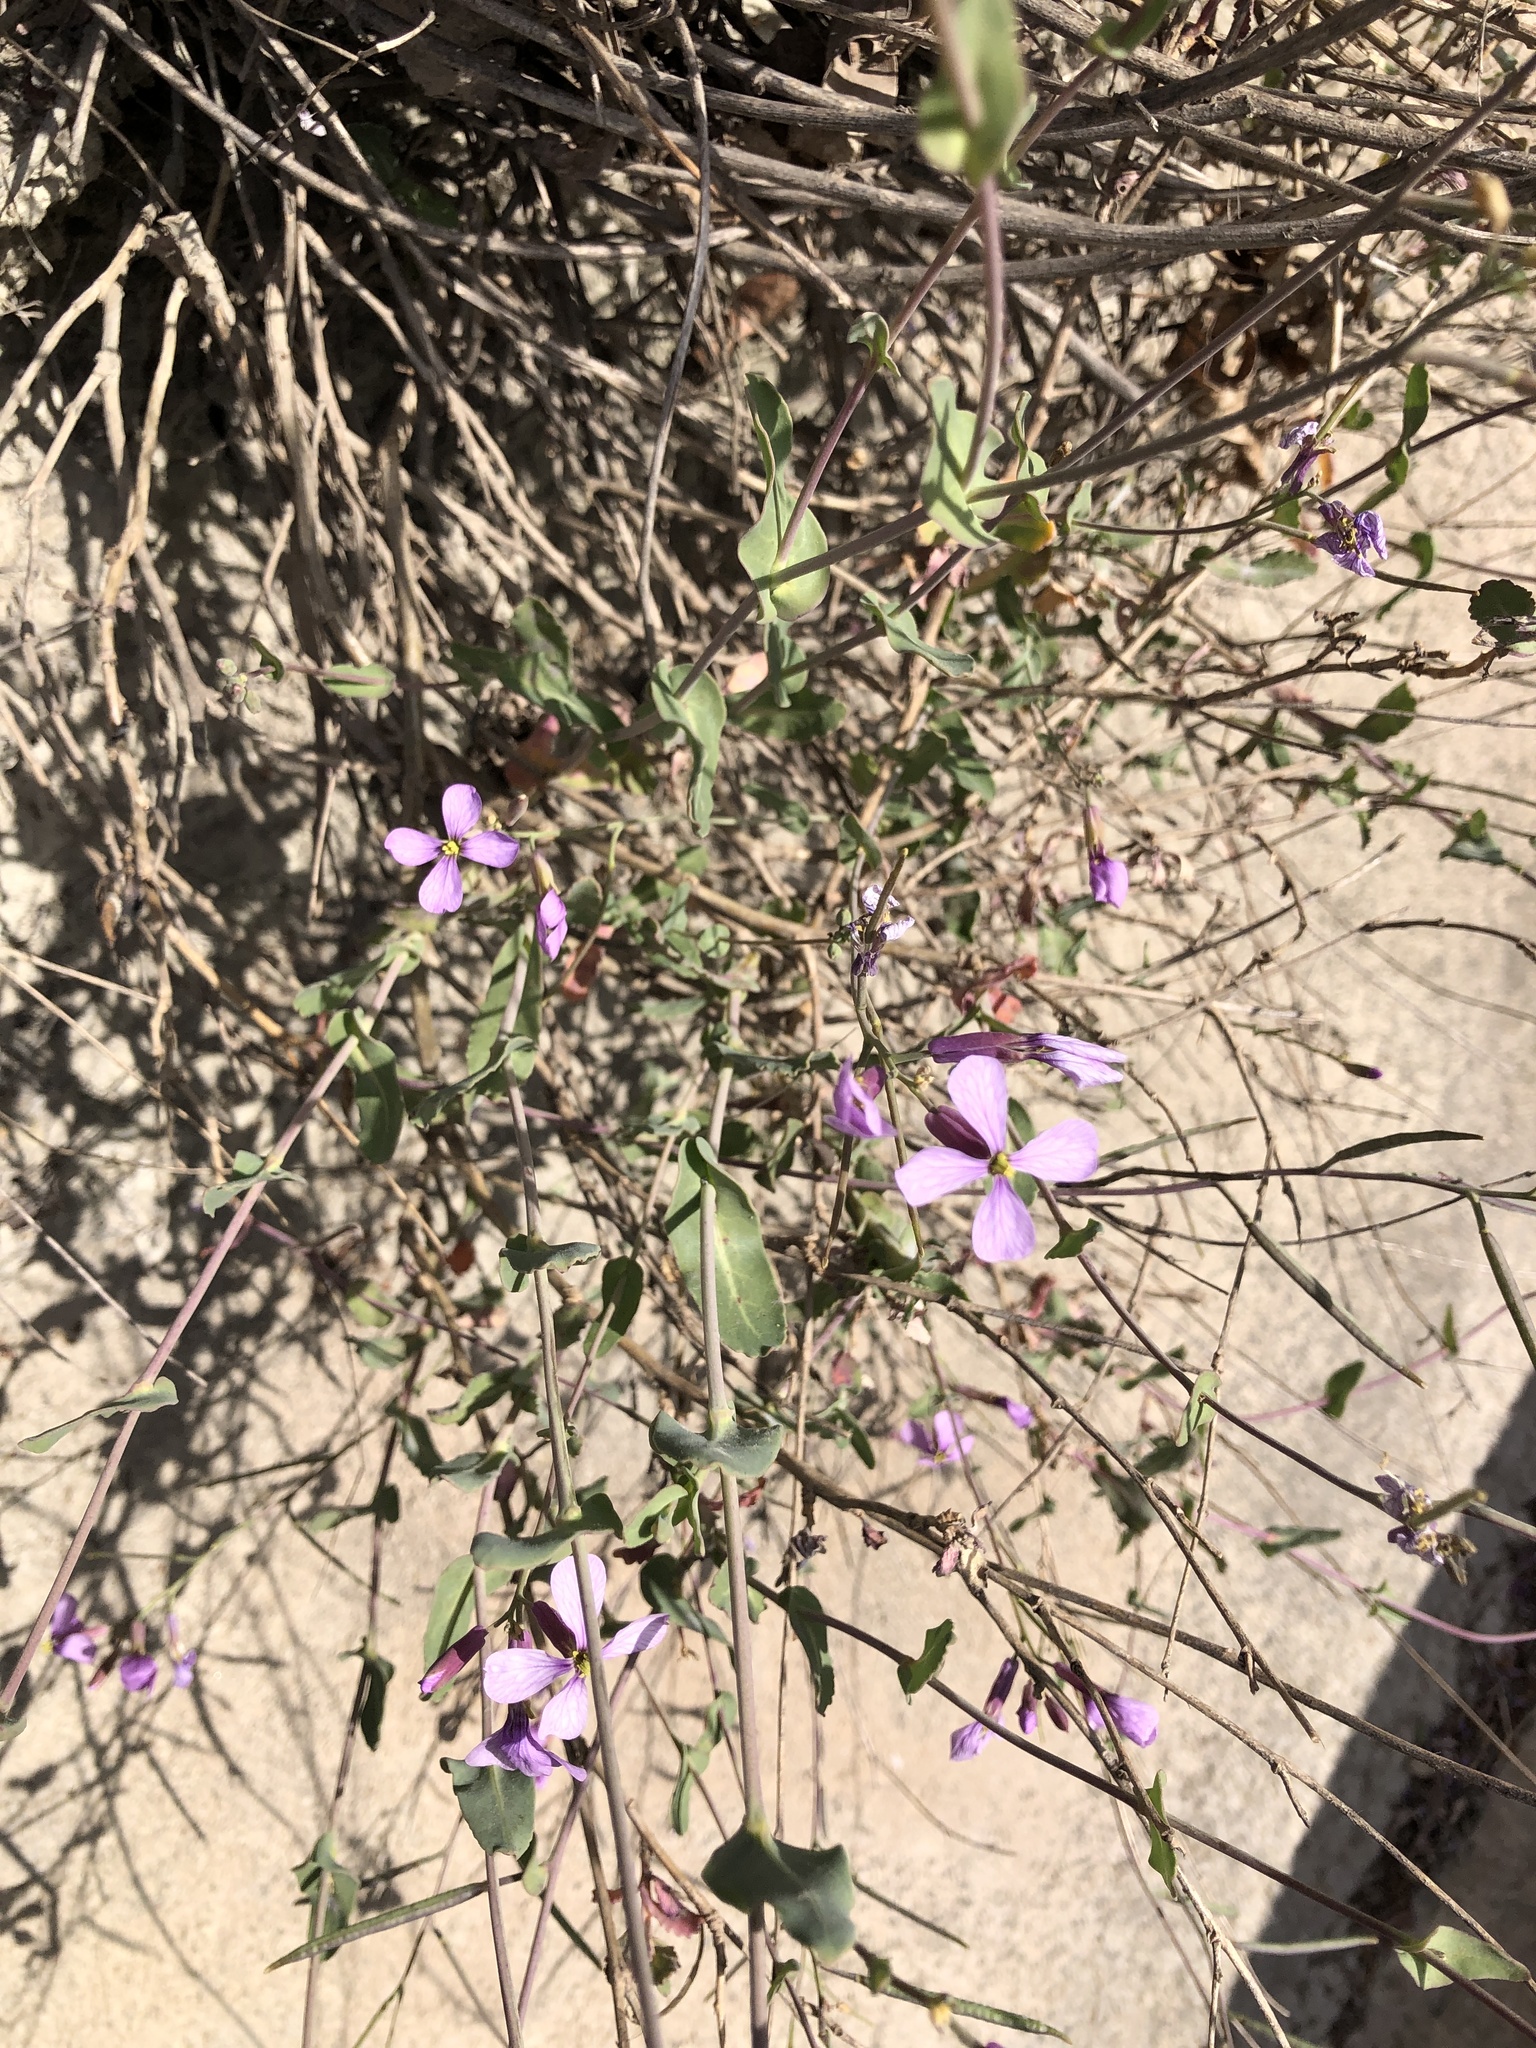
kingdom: Plantae
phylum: Tracheophyta
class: Magnoliopsida
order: Brassicales
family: Brassicaceae
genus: Moricandia
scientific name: Moricandia arvensis
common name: Purple mistress
